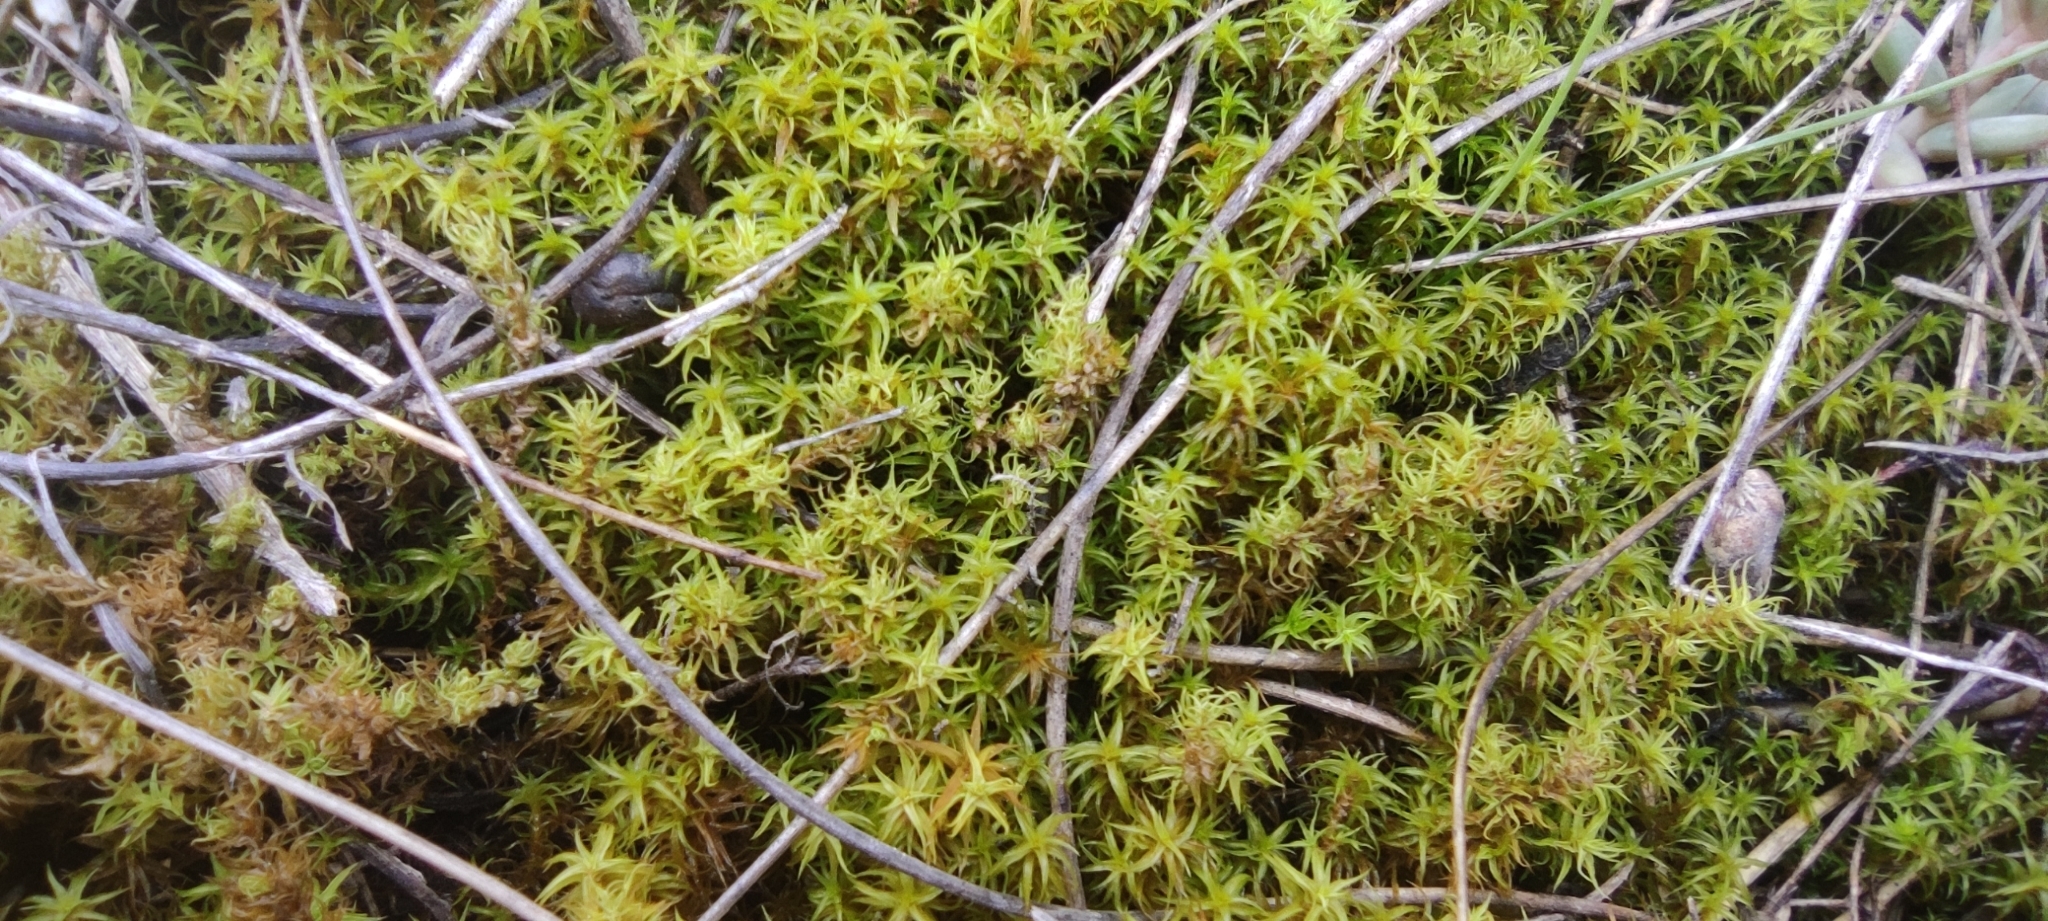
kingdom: Plantae
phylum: Bryophyta
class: Bryopsida
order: Pottiales
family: Pottiaceae
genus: Pleurochaete
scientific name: Pleurochaete squarrosa
